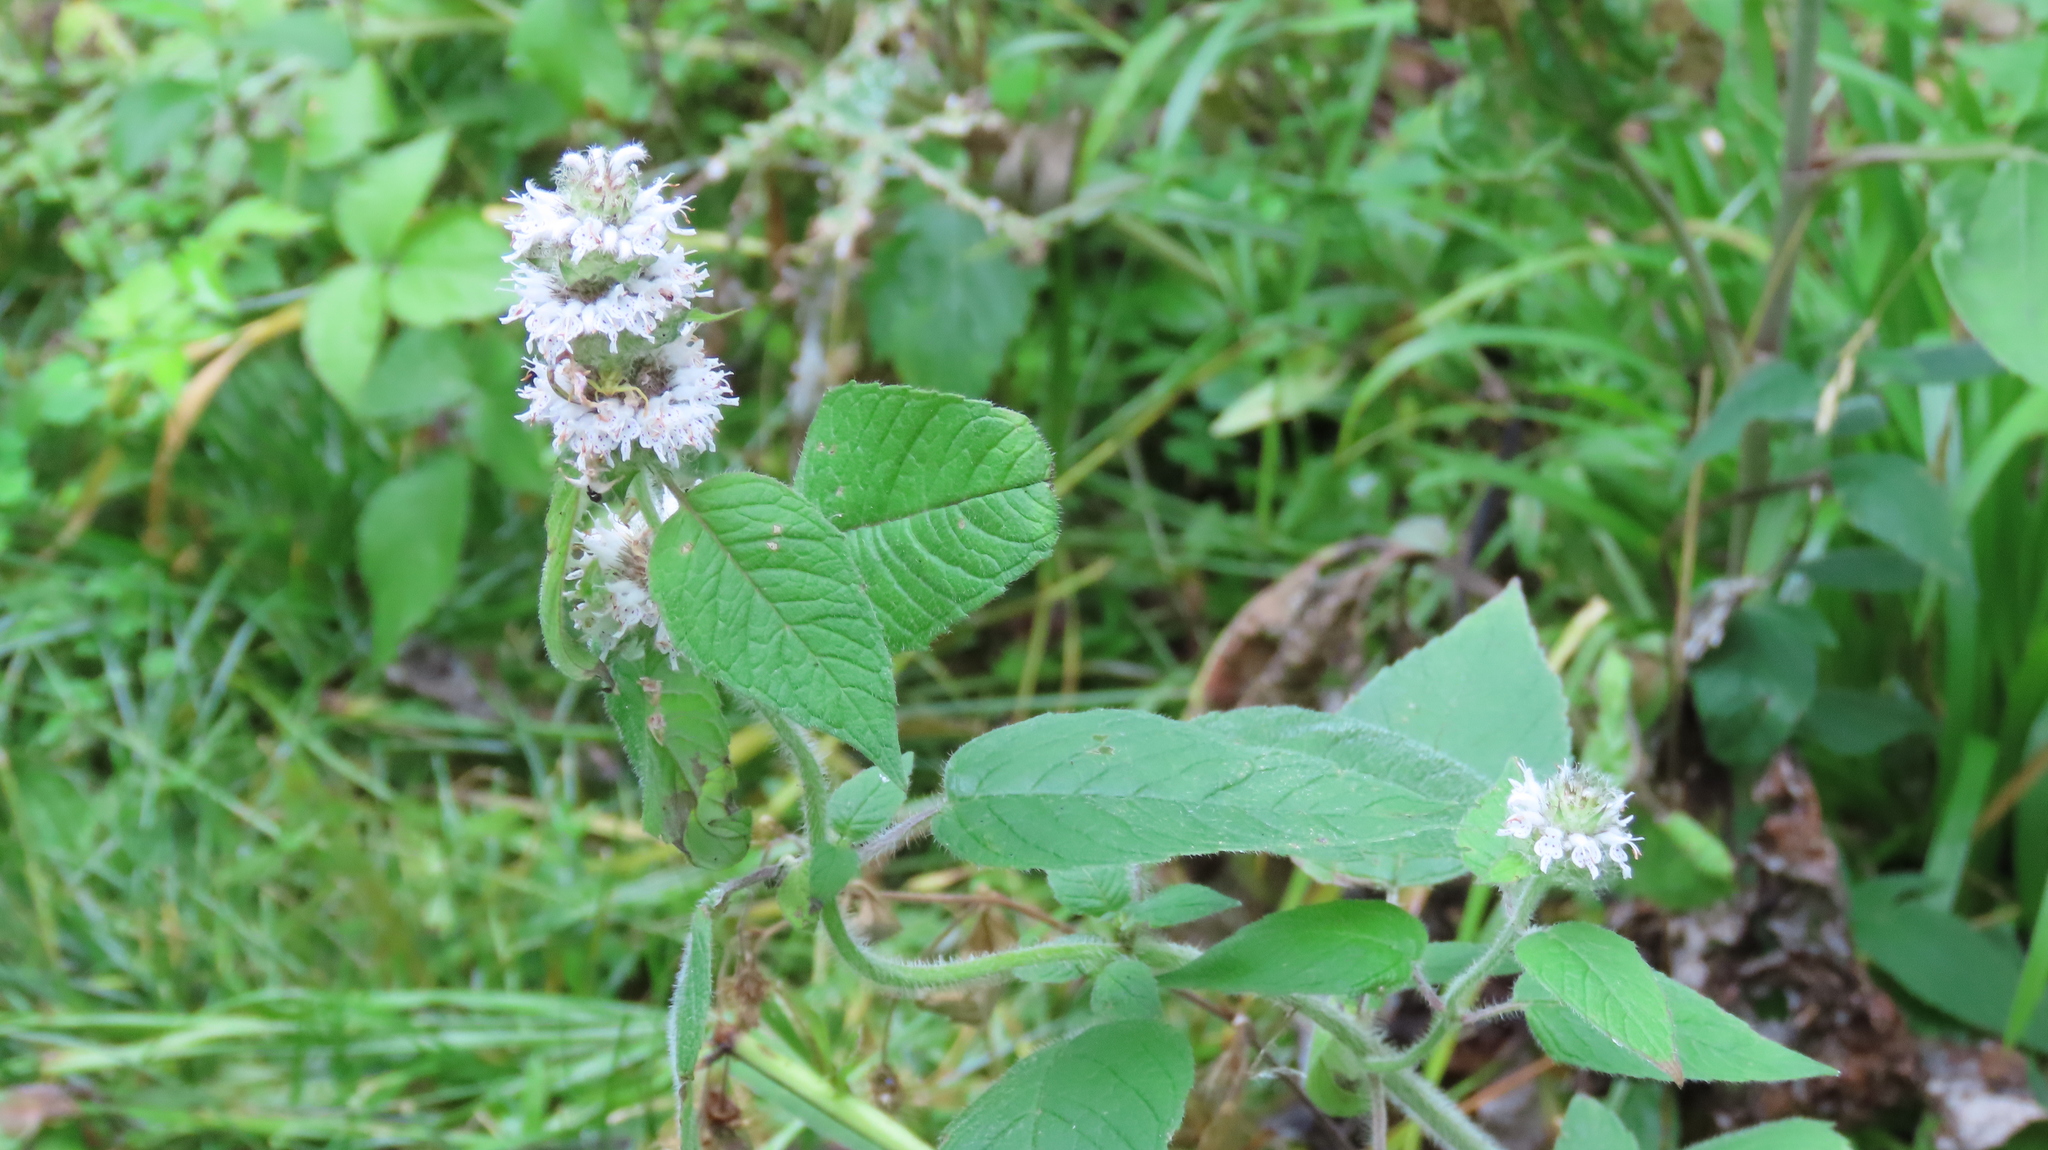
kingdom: Plantae
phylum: Tracheophyta
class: Magnoliopsida
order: Lamiales
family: Lamiaceae
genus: Blephilia
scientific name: Blephilia hirsuta
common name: Hairy blephilia
